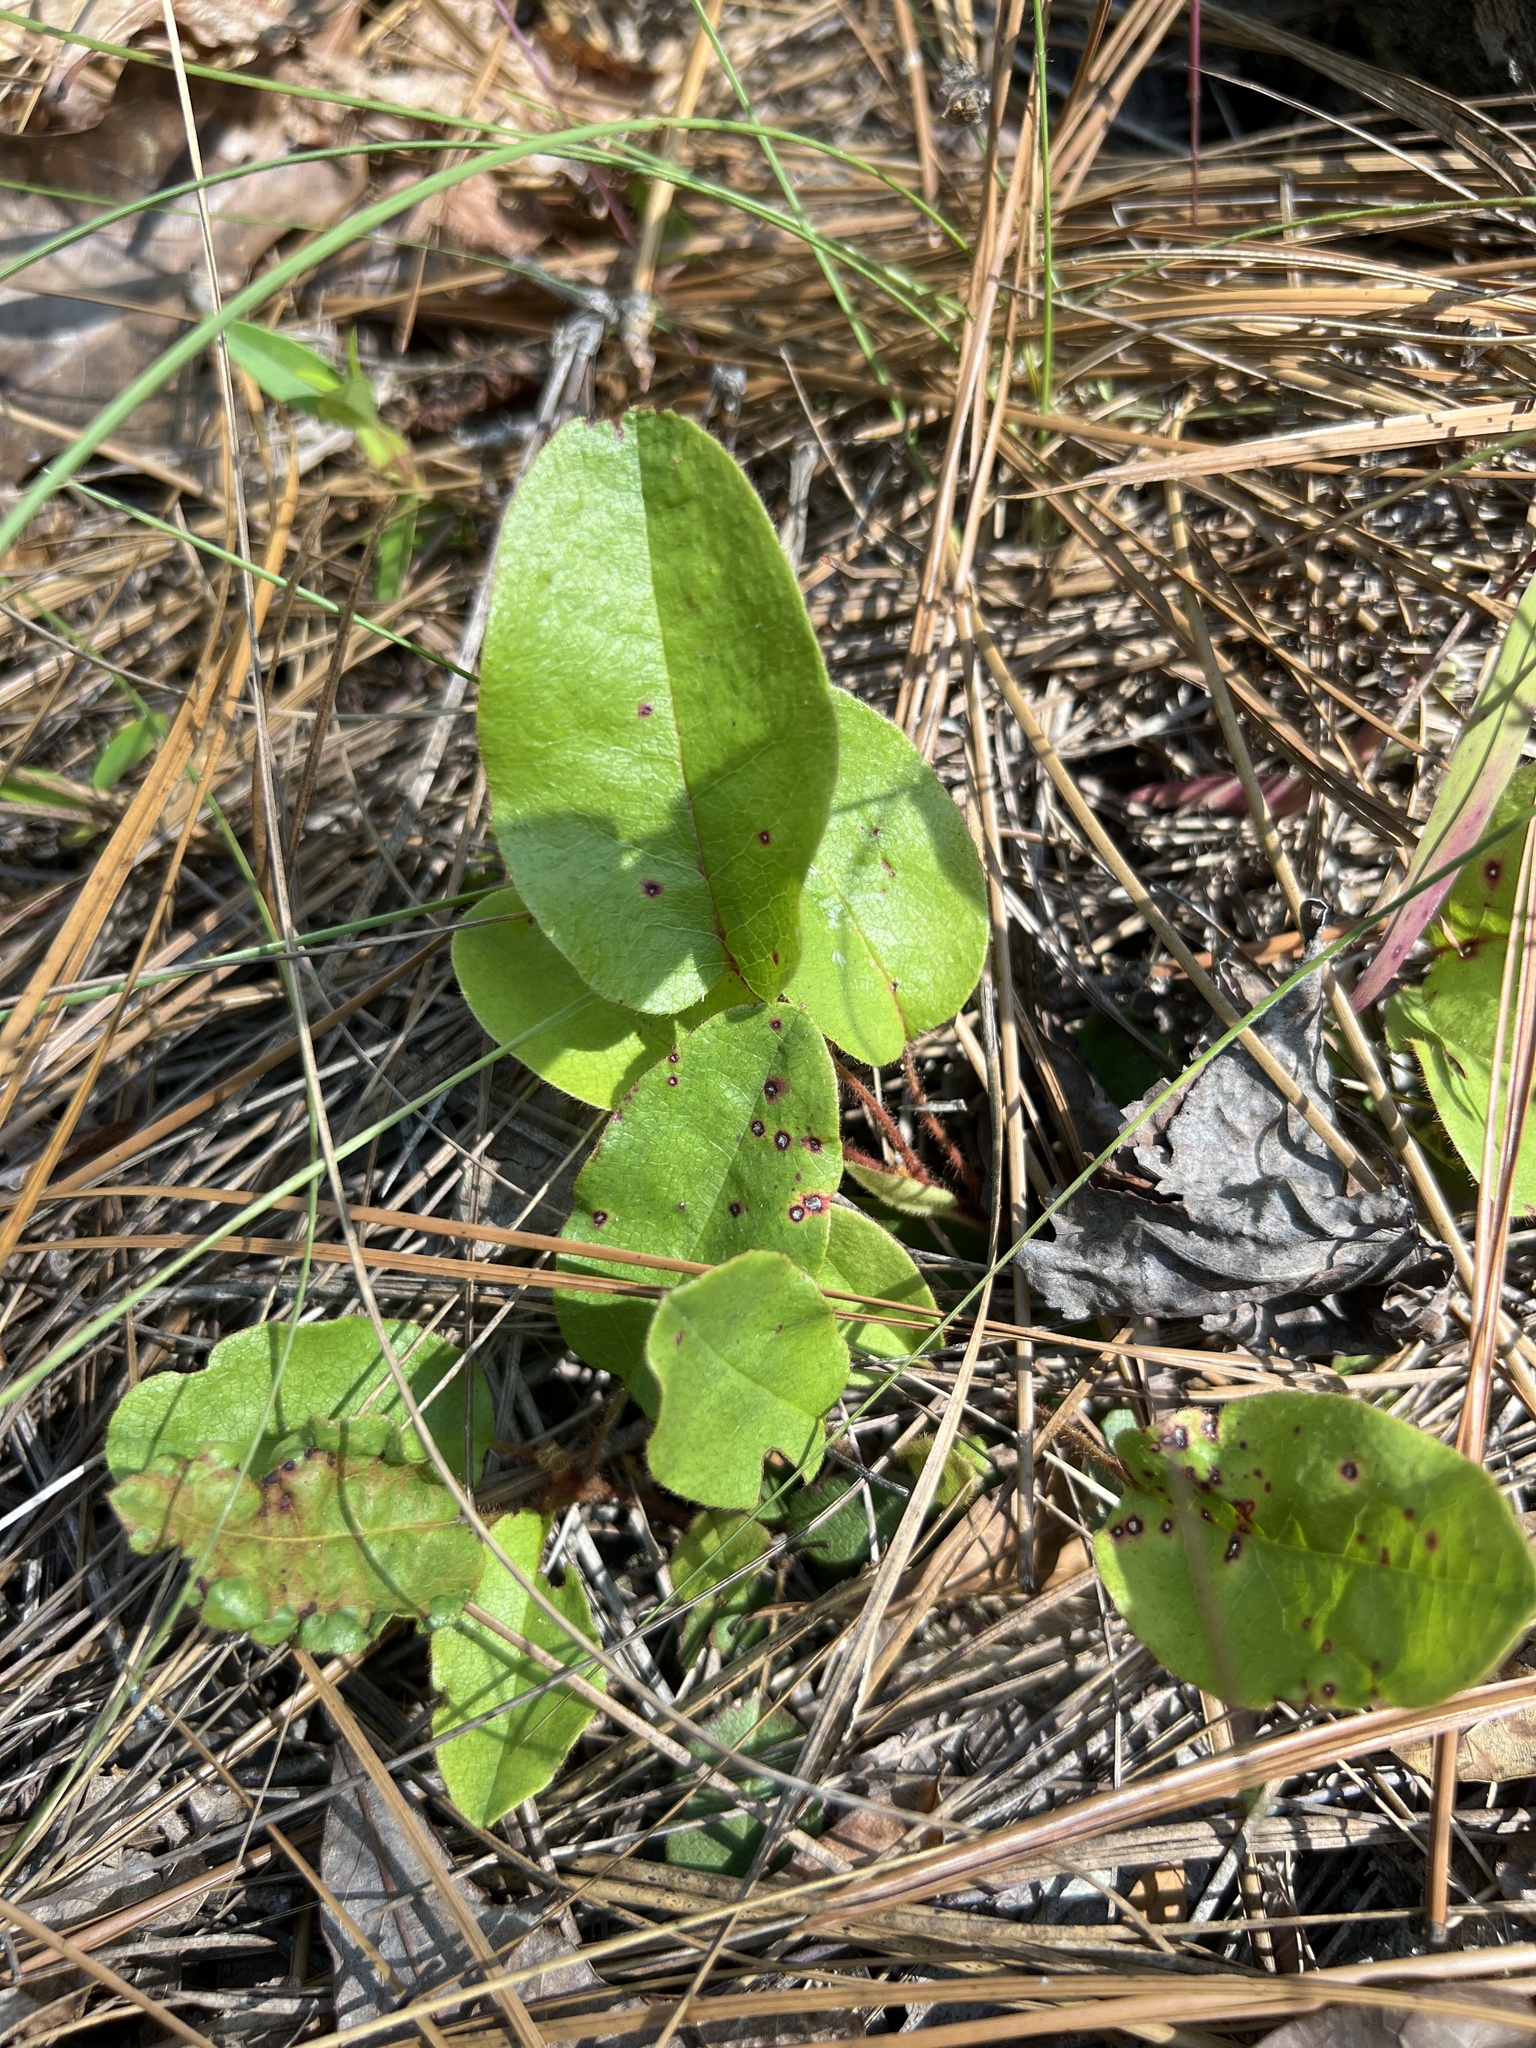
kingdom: Plantae
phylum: Tracheophyta
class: Magnoliopsida
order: Ericales
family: Ericaceae
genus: Epigaea
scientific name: Epigaea repens
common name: Gravelroot
